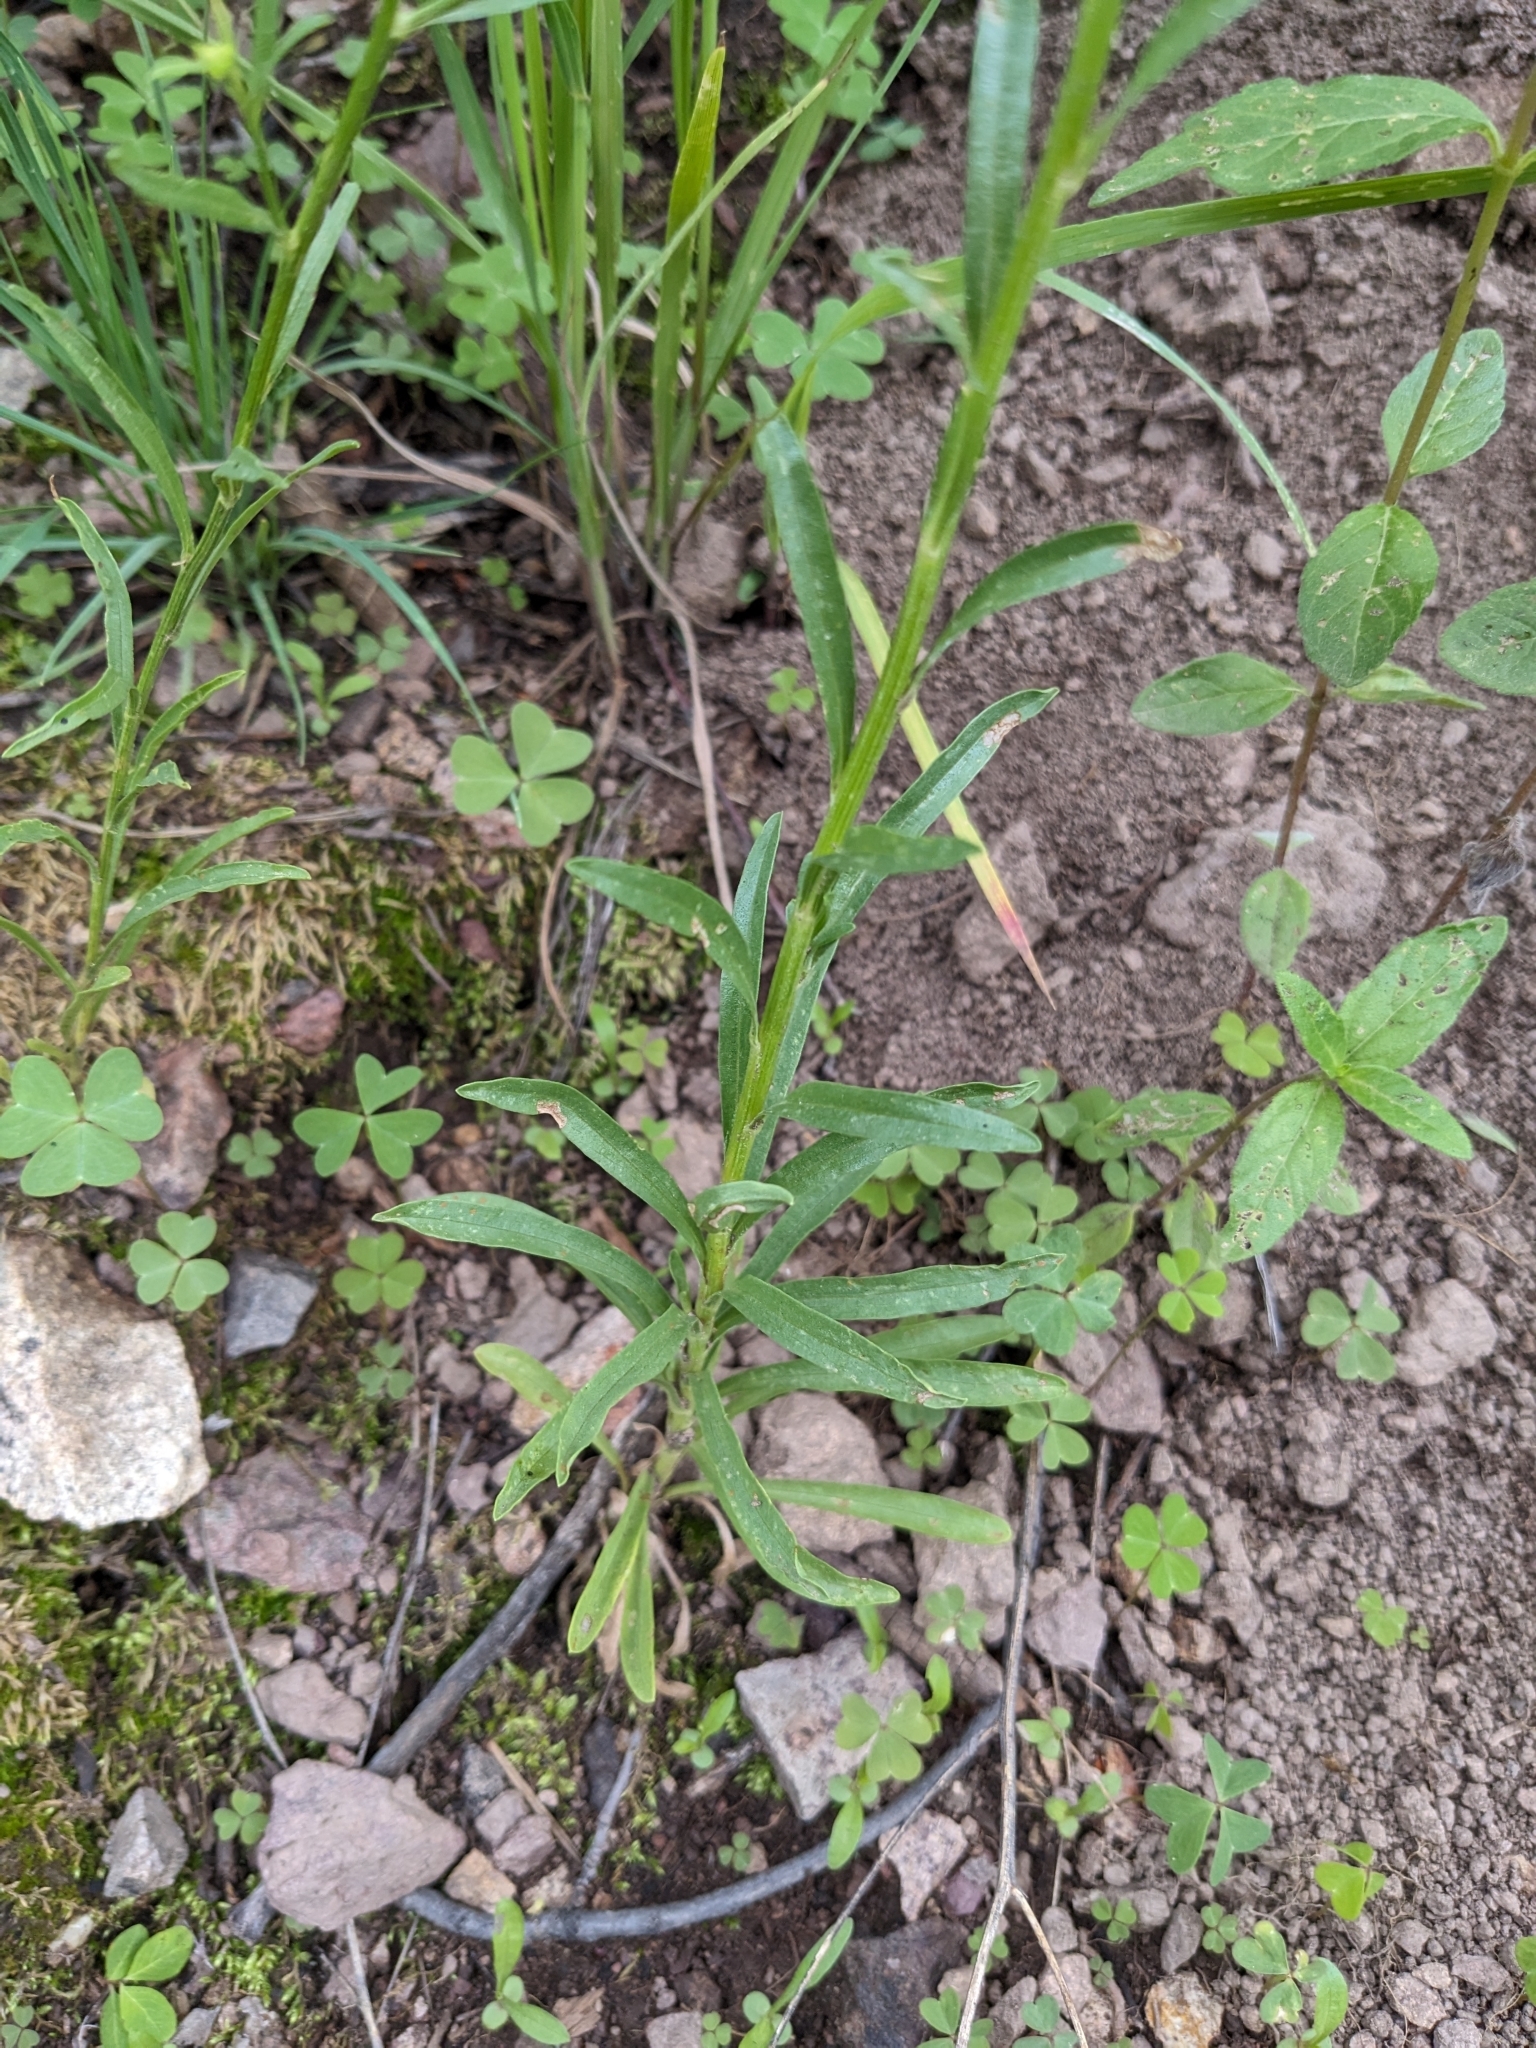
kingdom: Plantae
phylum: Tracheophyta
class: Magnoliopsida
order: Asterales
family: Asteraceae
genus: Gutierrezia
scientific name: Gutierrezia wrightii
